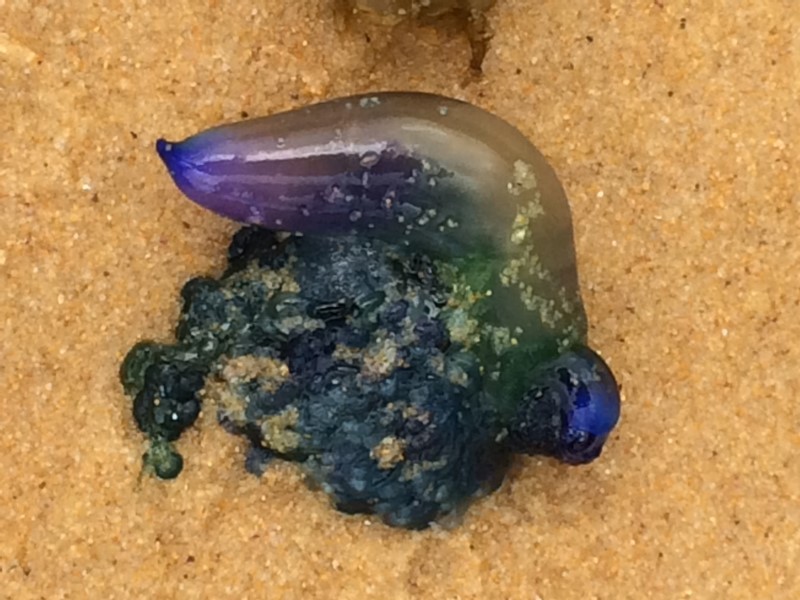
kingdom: Animalia
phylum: Cnidaria
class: Hydrozoa
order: Siphonophorae
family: Physaliidae
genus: Physalia
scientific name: Physalia physalis
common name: Portuguese man-of-war
